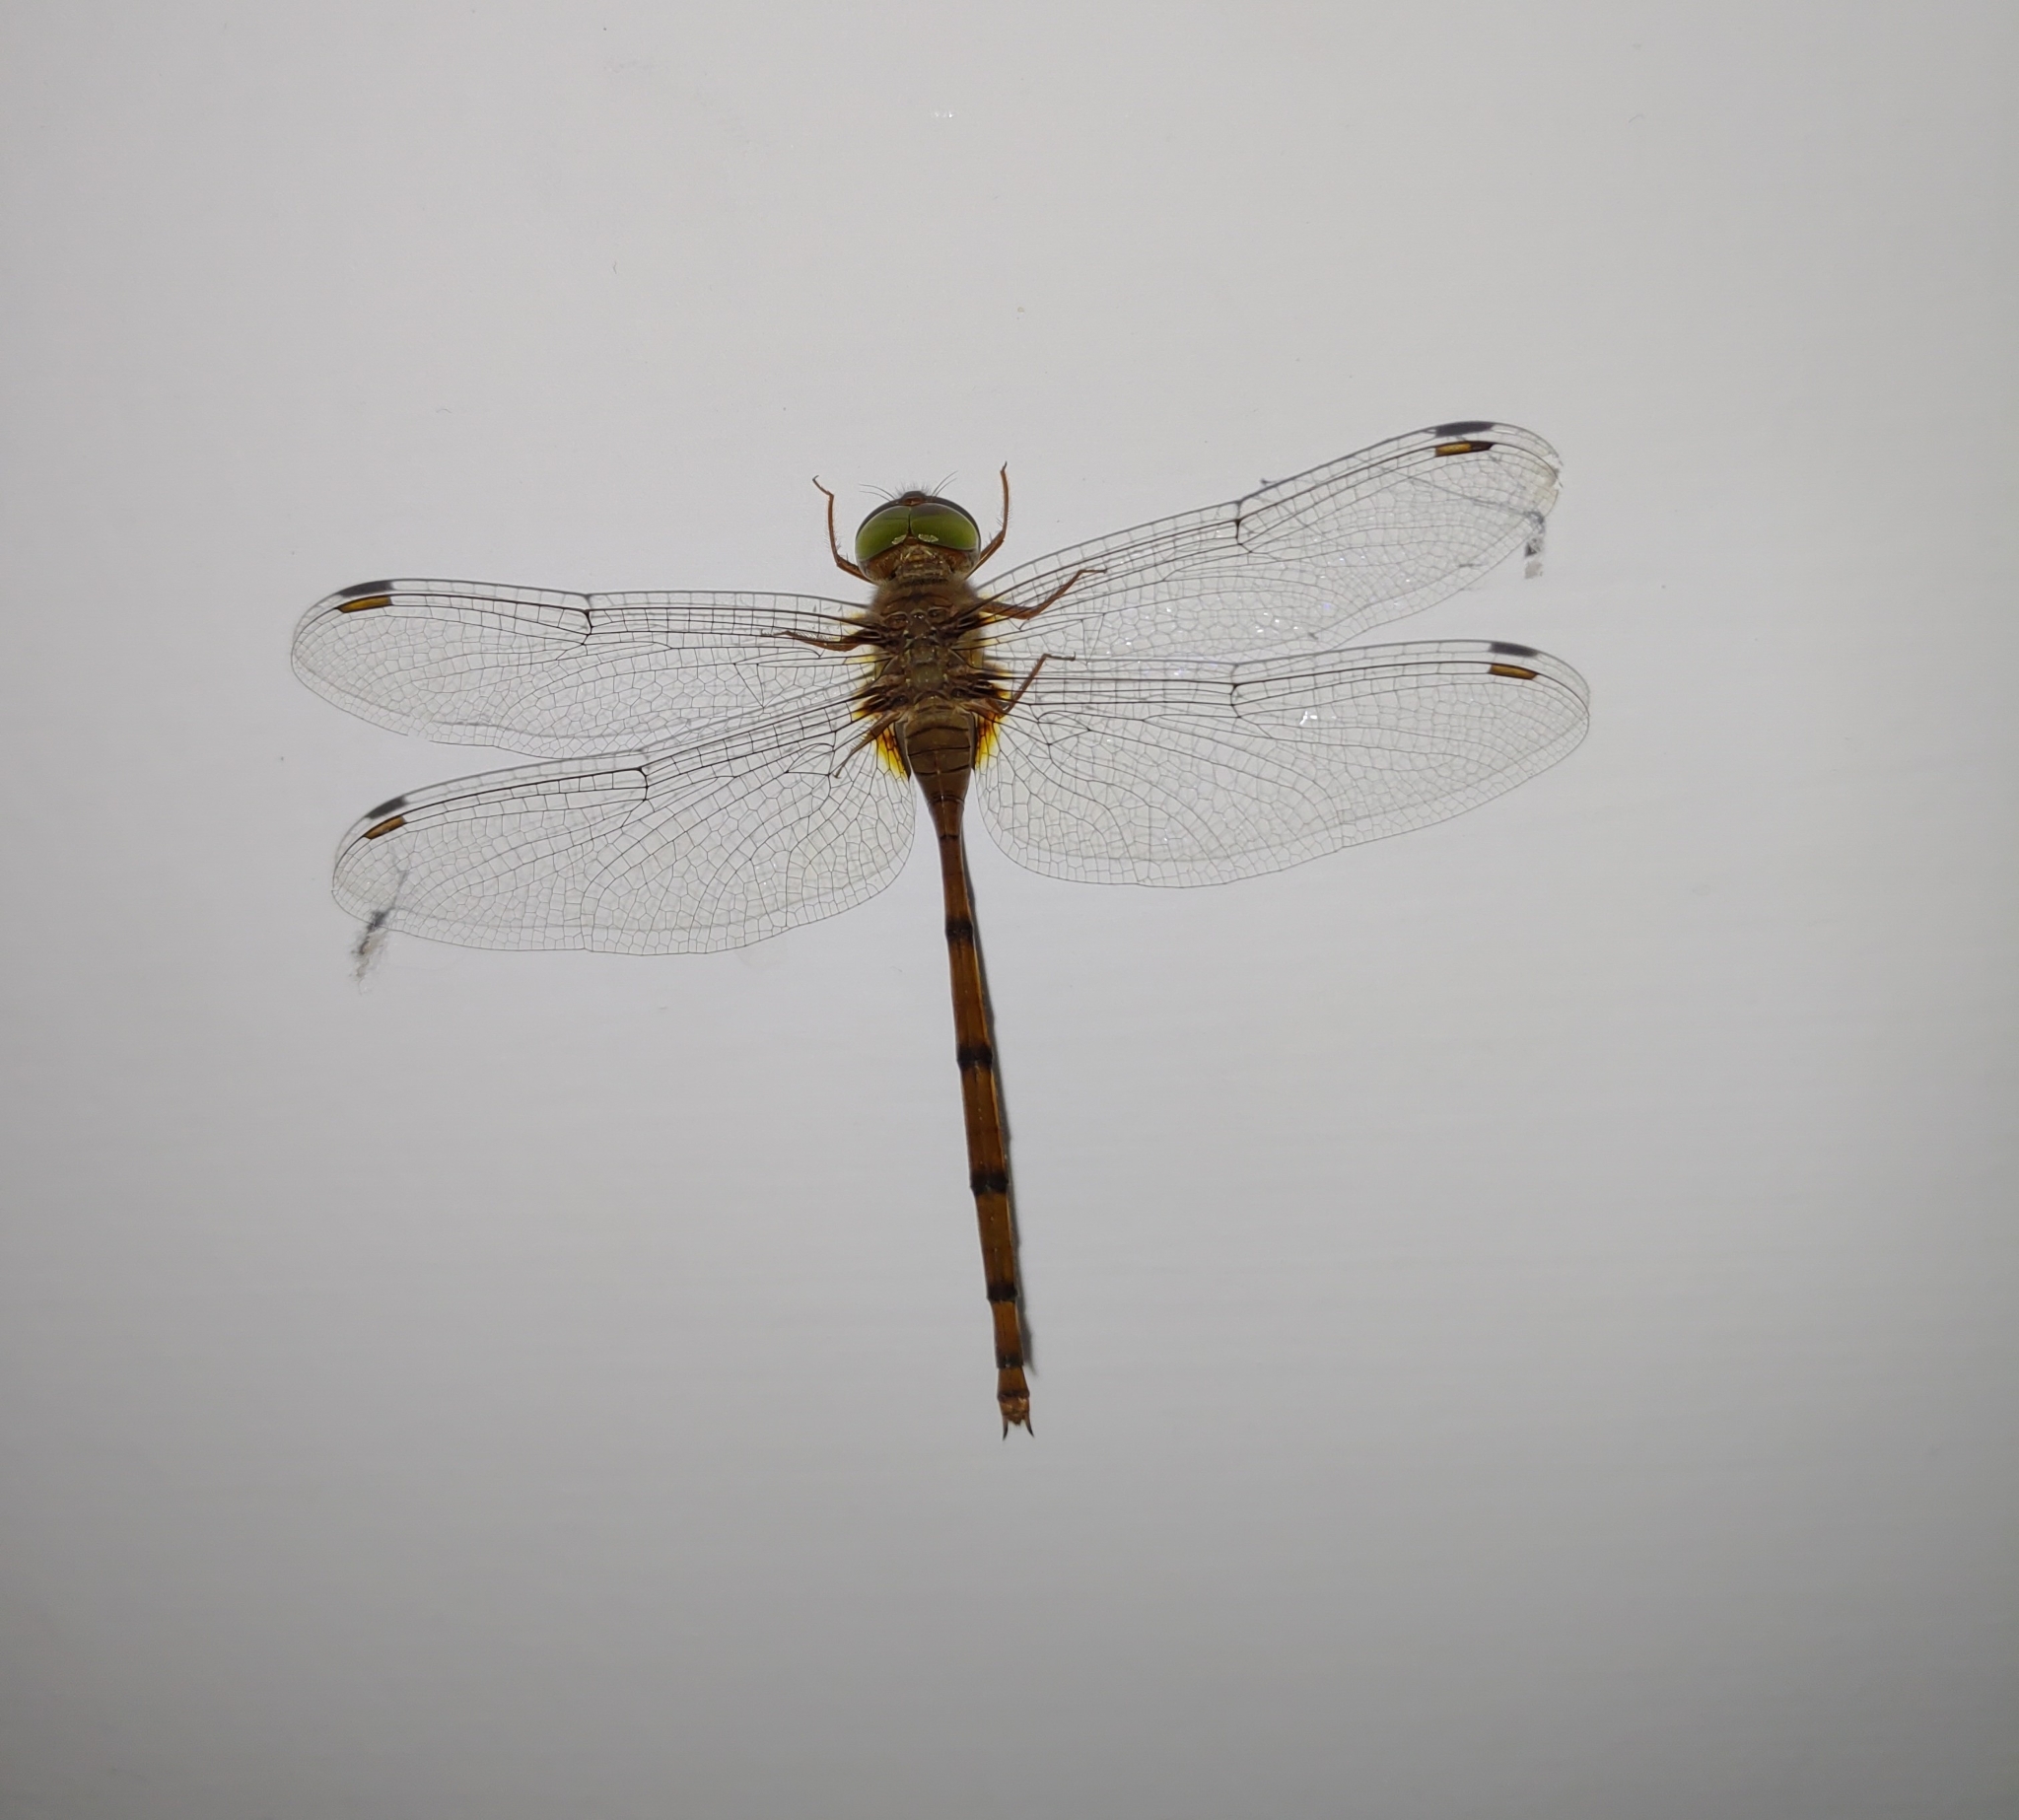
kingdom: Animalia
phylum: Arthropoda
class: Insecta
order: Odonata
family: Libellulidae
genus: Zyxomma
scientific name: Zyxomma petiolatum
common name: Dingy dusk-darter
